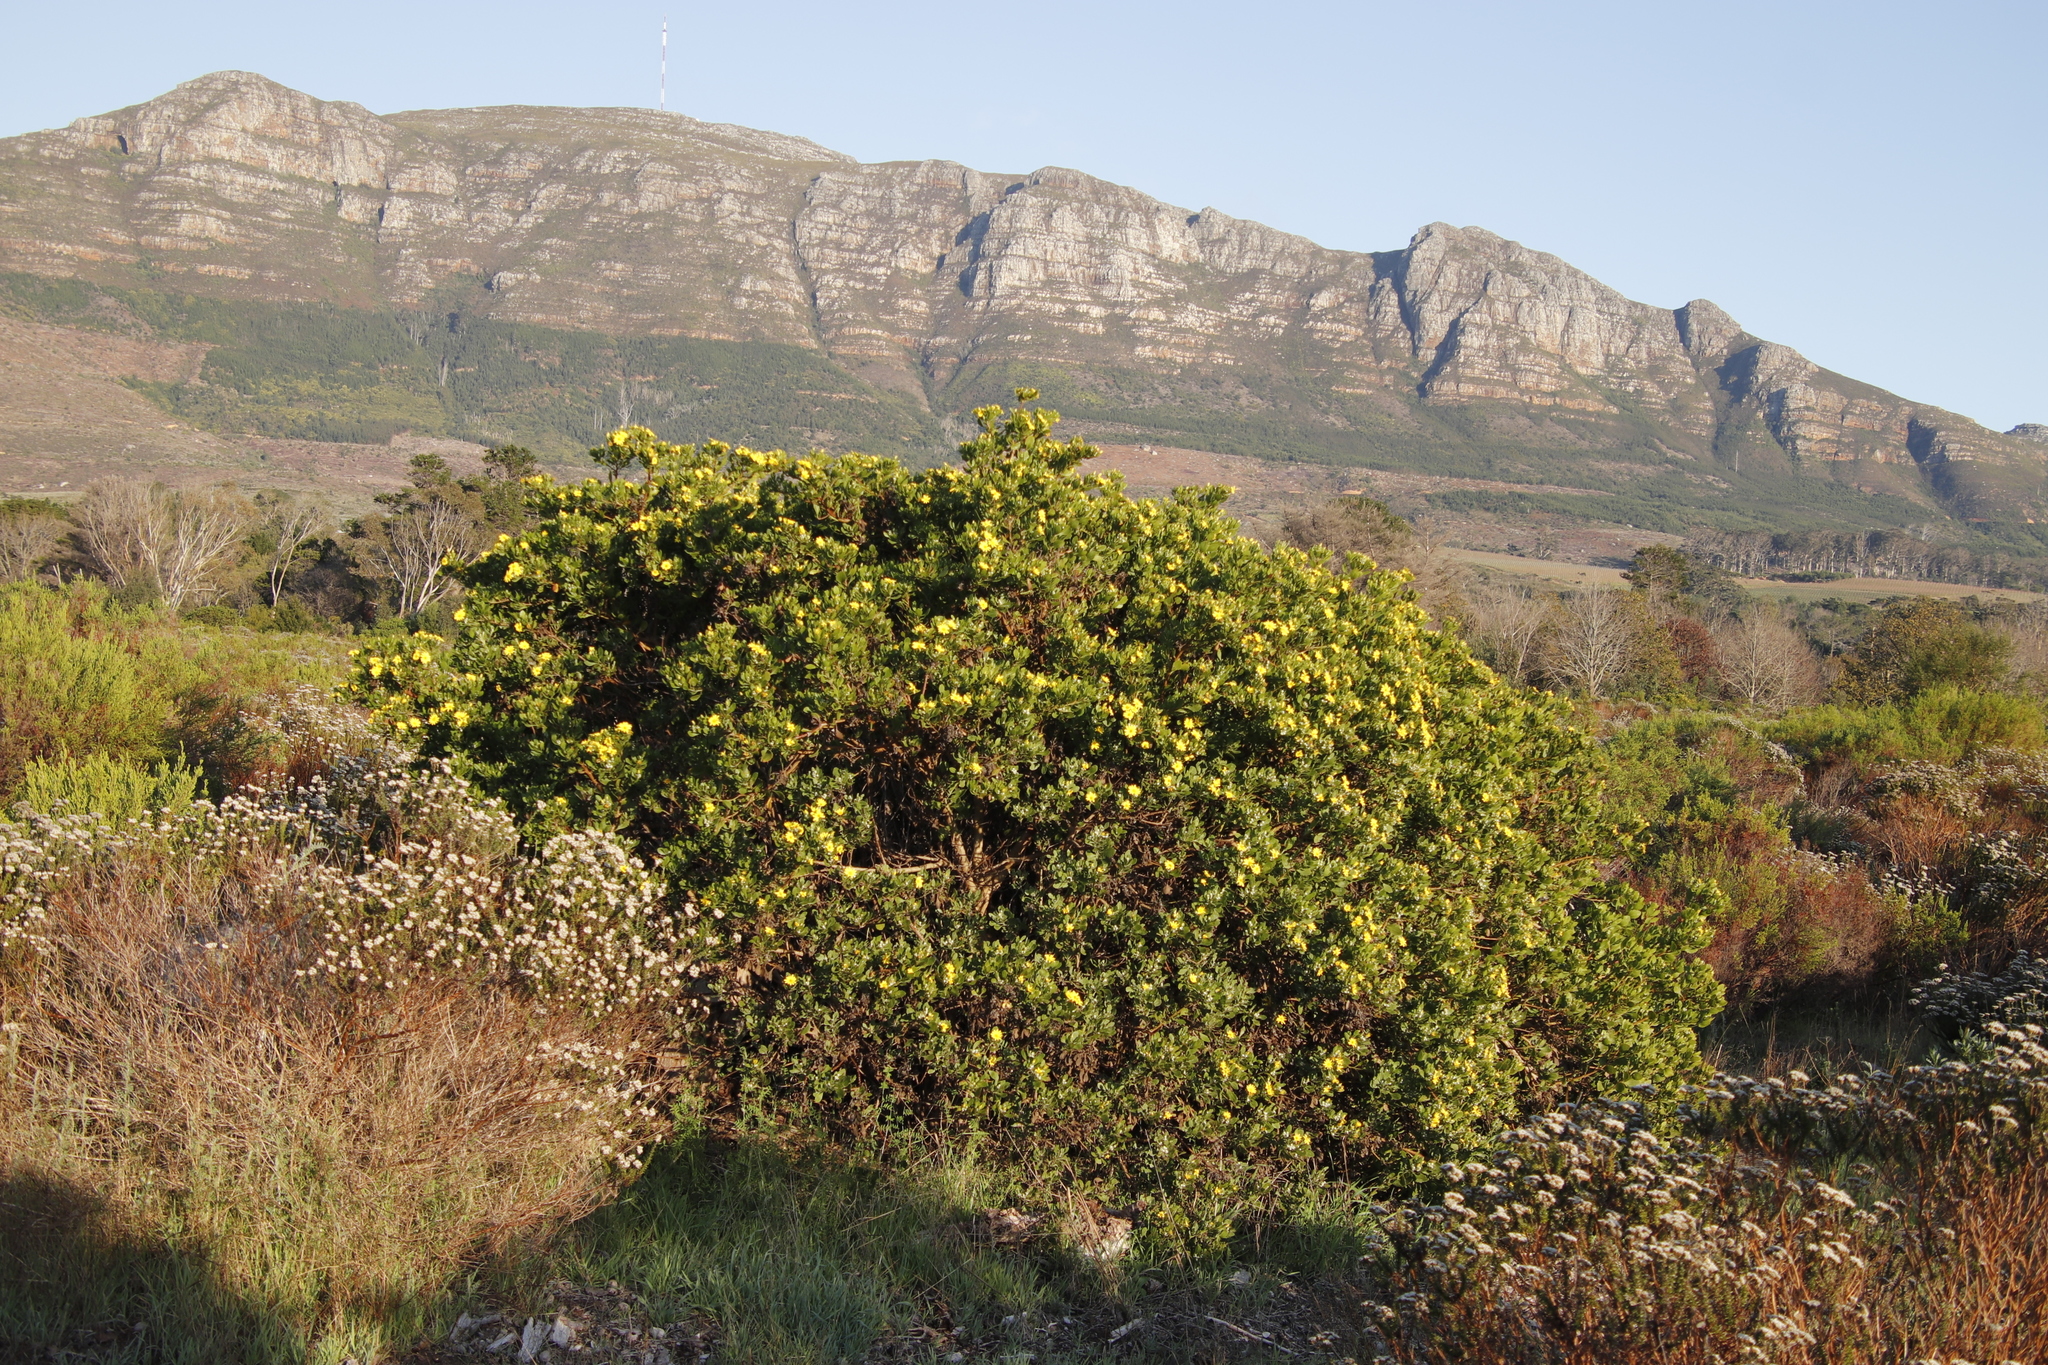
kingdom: Plantae
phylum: Tracheophyta
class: Magnoliopsida
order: Asterales
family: Asteraceae
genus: Osteospermum
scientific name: Osteospermum moniliferum
